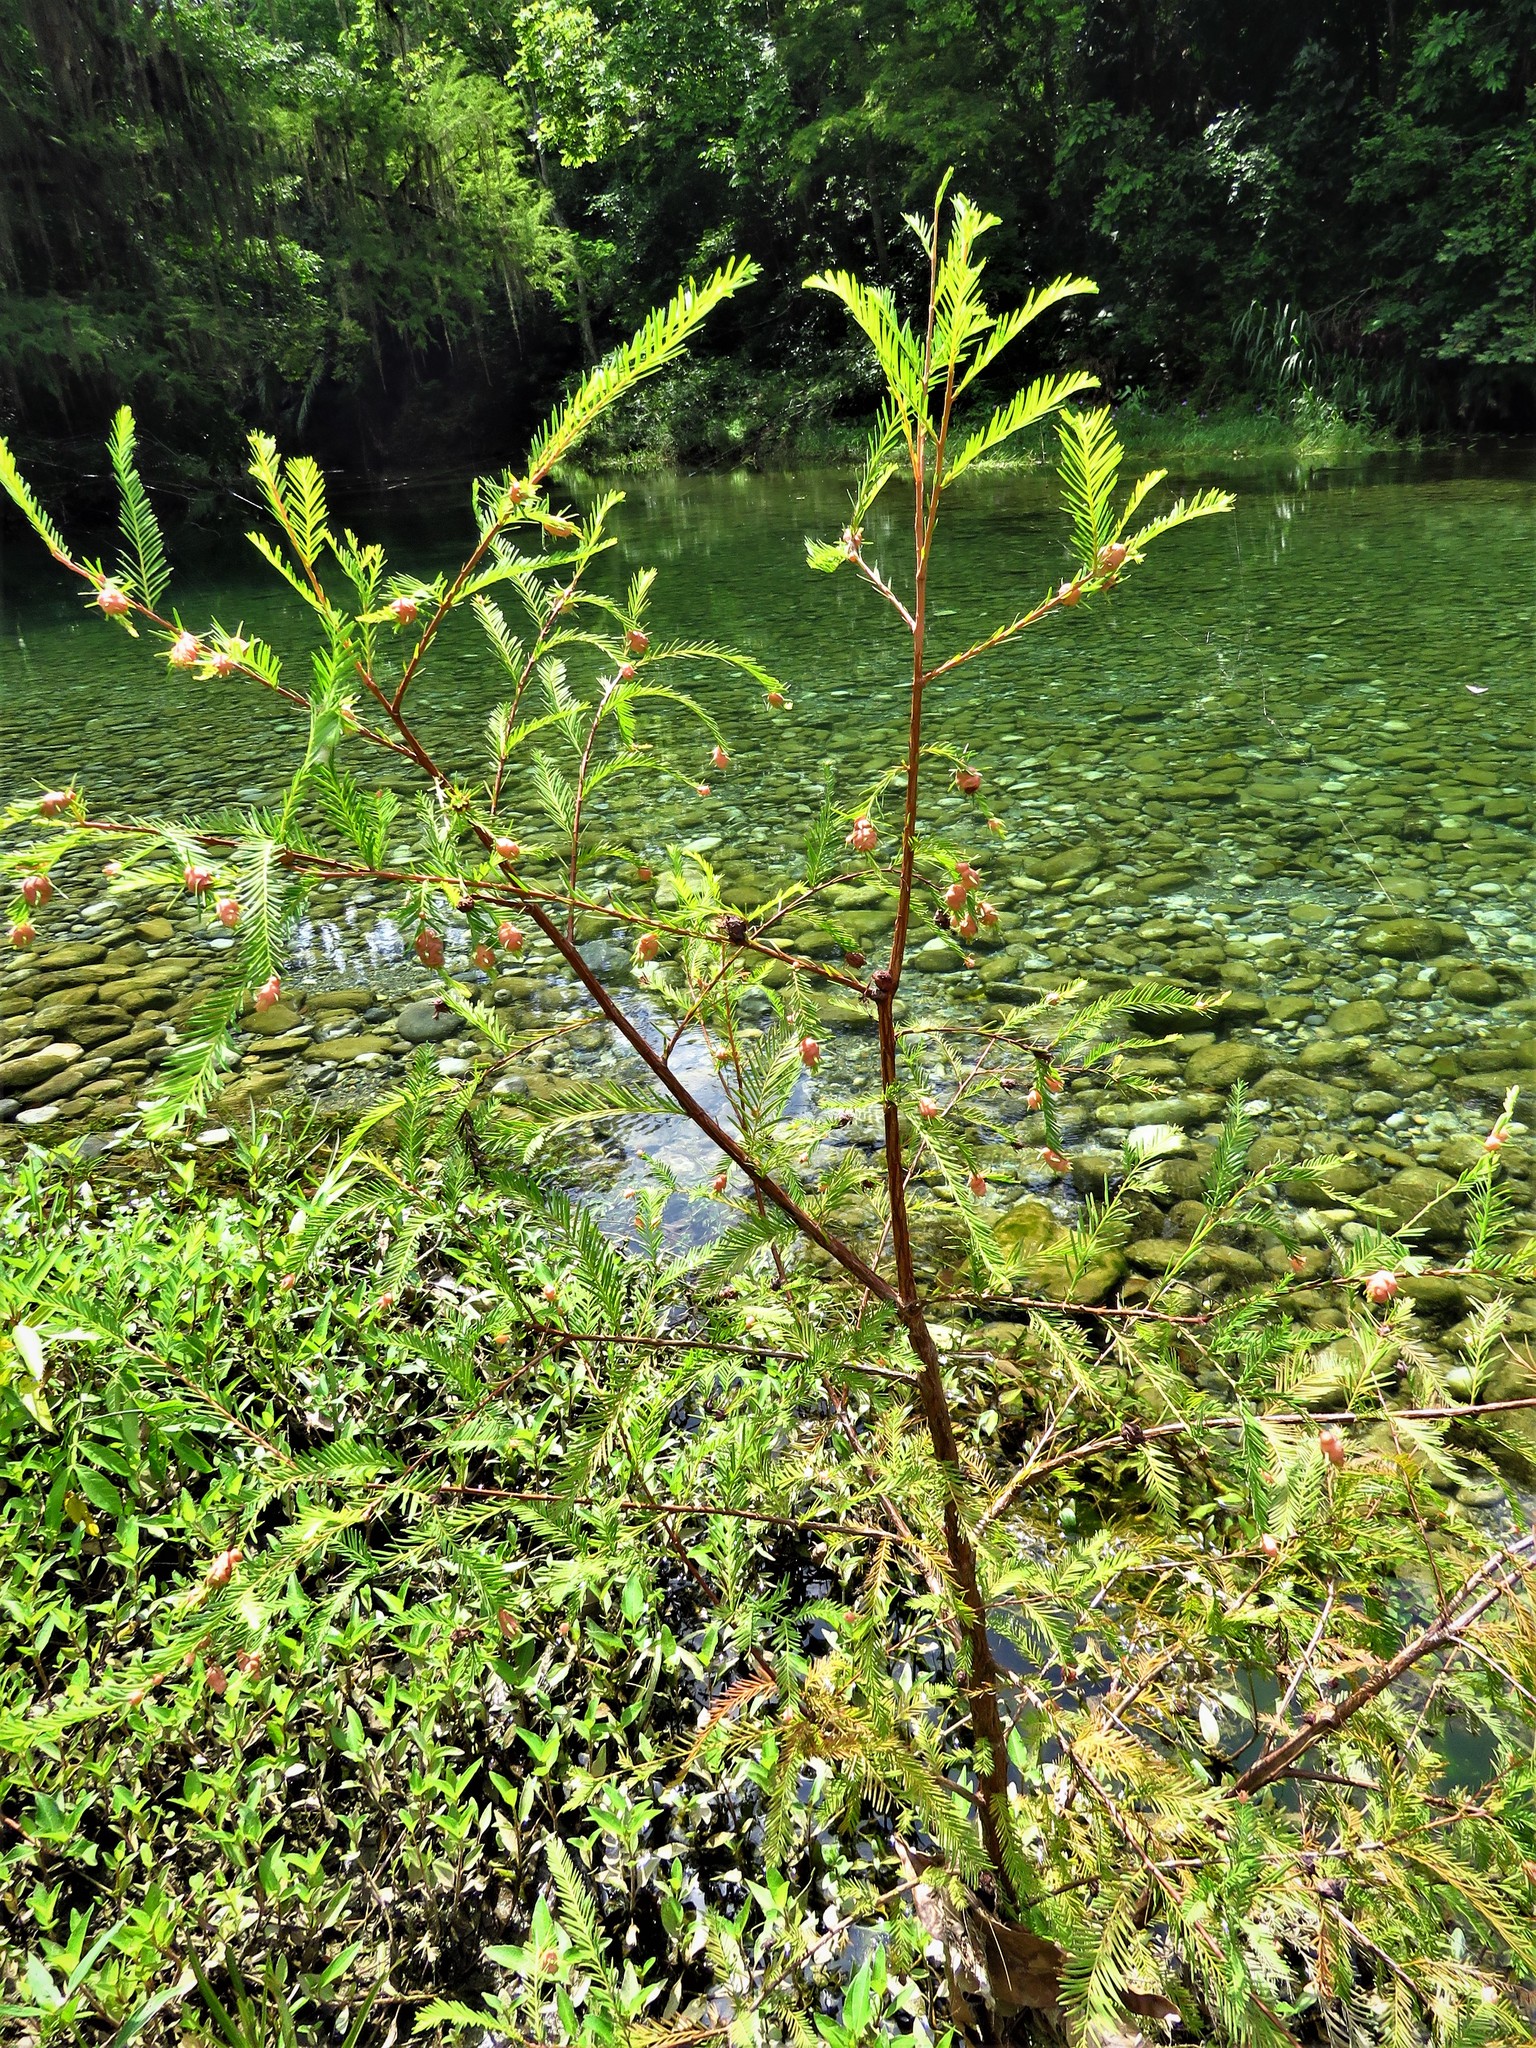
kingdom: Plantae
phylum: Tracheophyta
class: Pinopsida
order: Pinales
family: Cupressaceae
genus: Taxodium
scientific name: Taxodium mucronatum
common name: Montezume bald cypress
